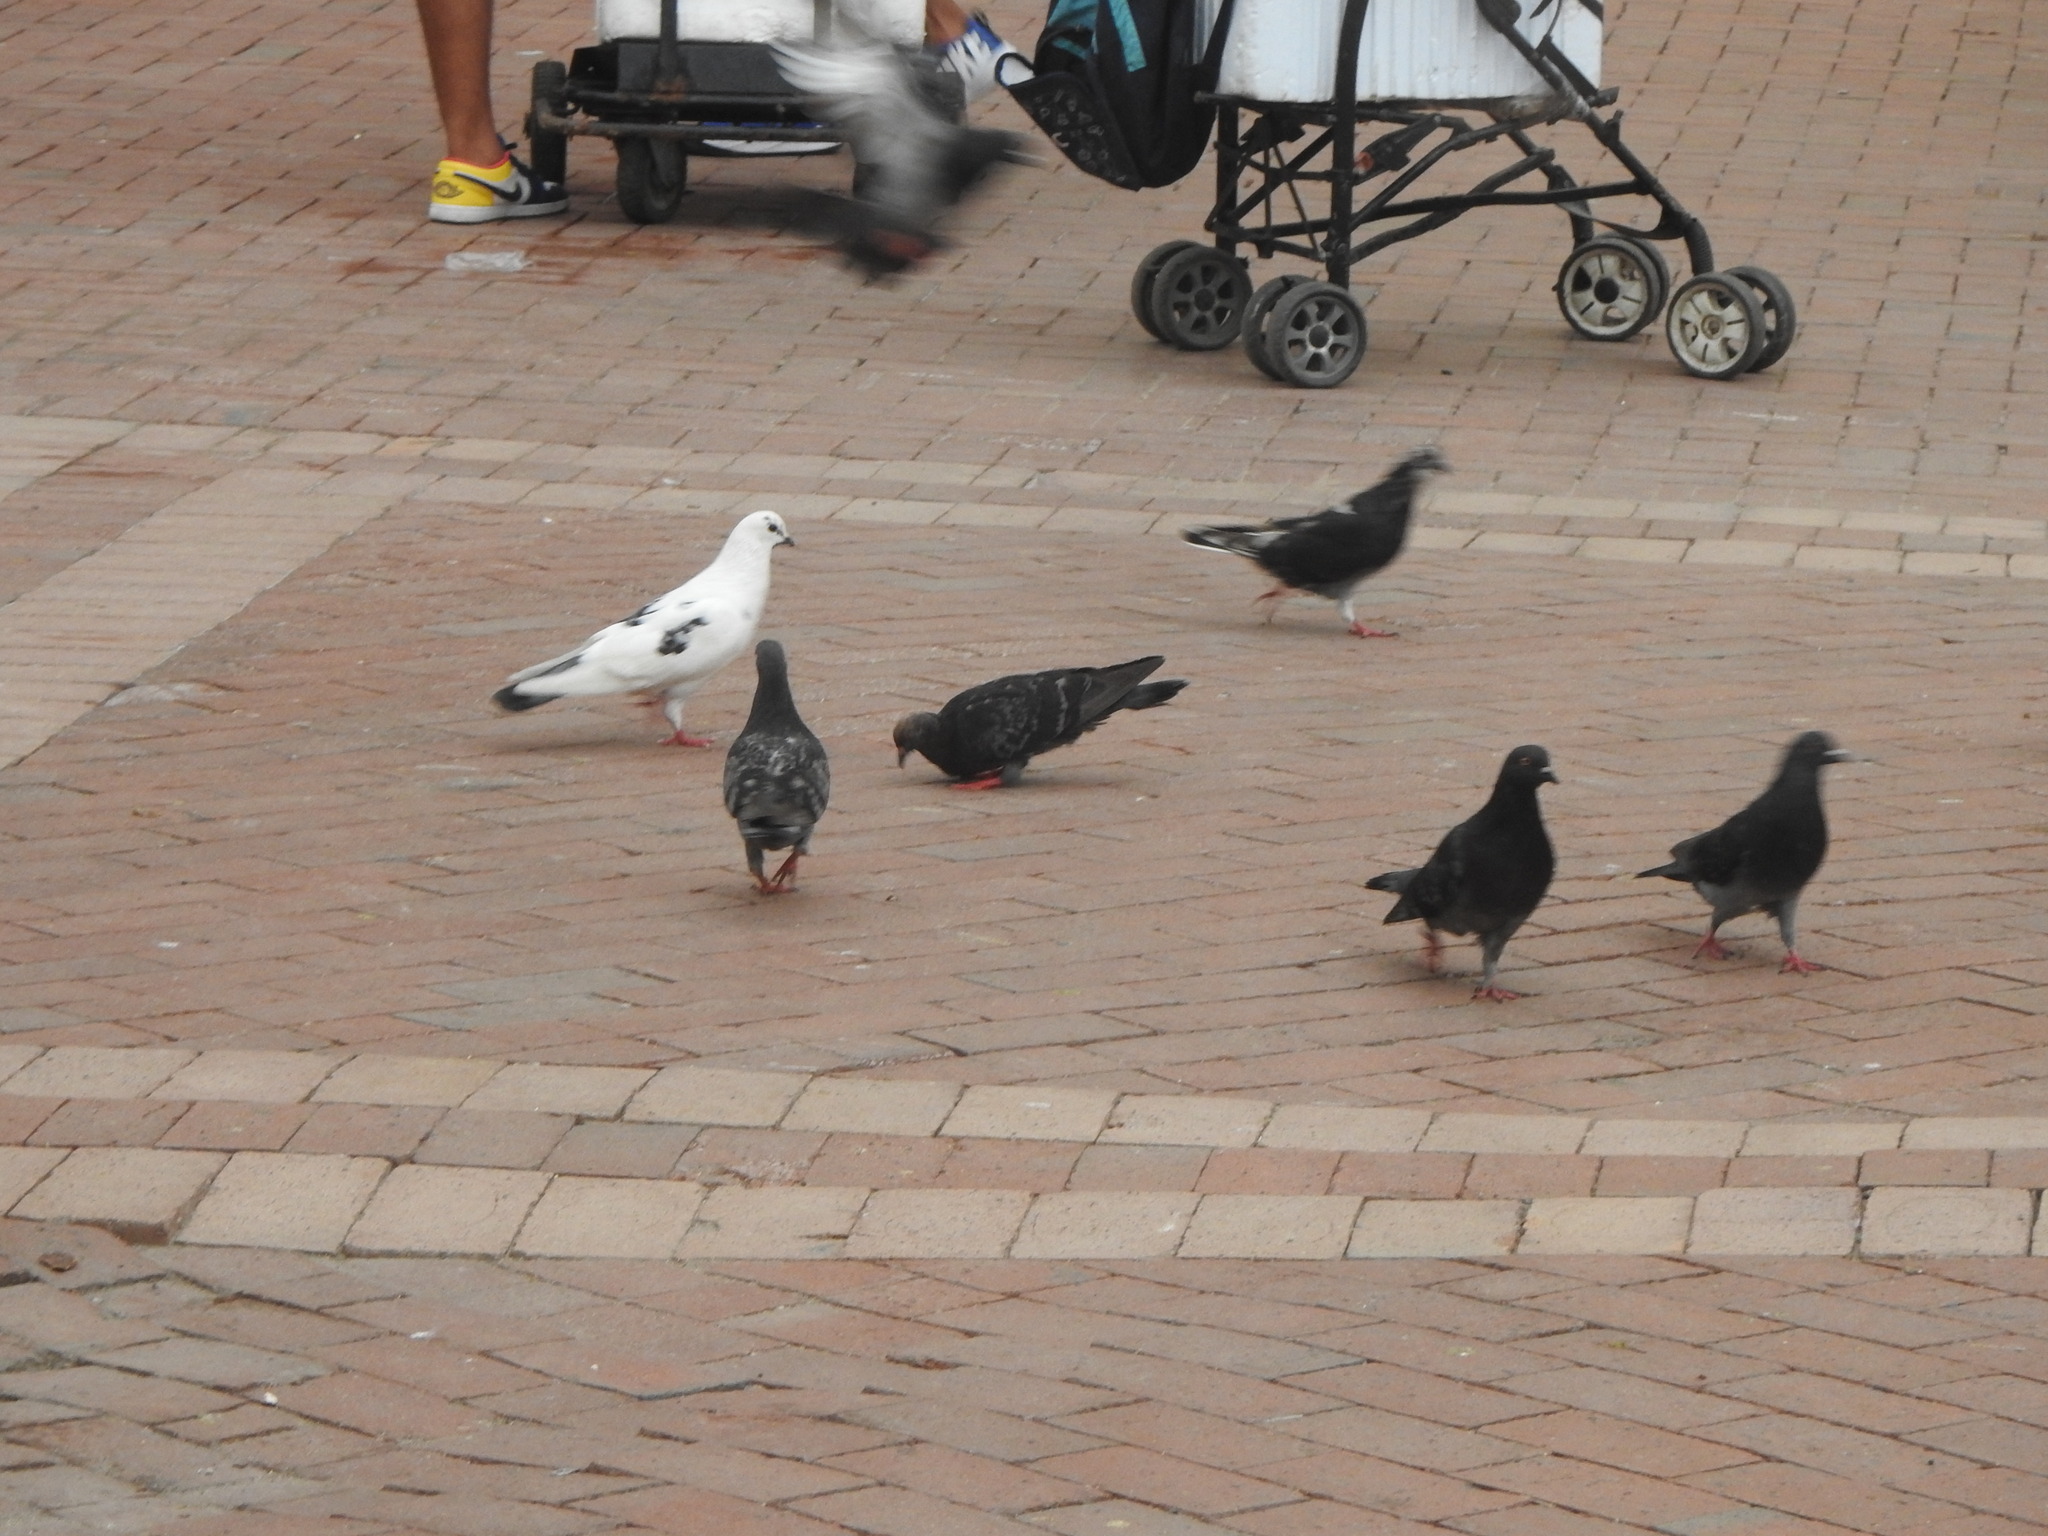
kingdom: Animalia
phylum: Chordata
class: Aves
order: Columbiformes
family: Columbidae
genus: Columba
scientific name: Columba livia
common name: Rock pigeon
